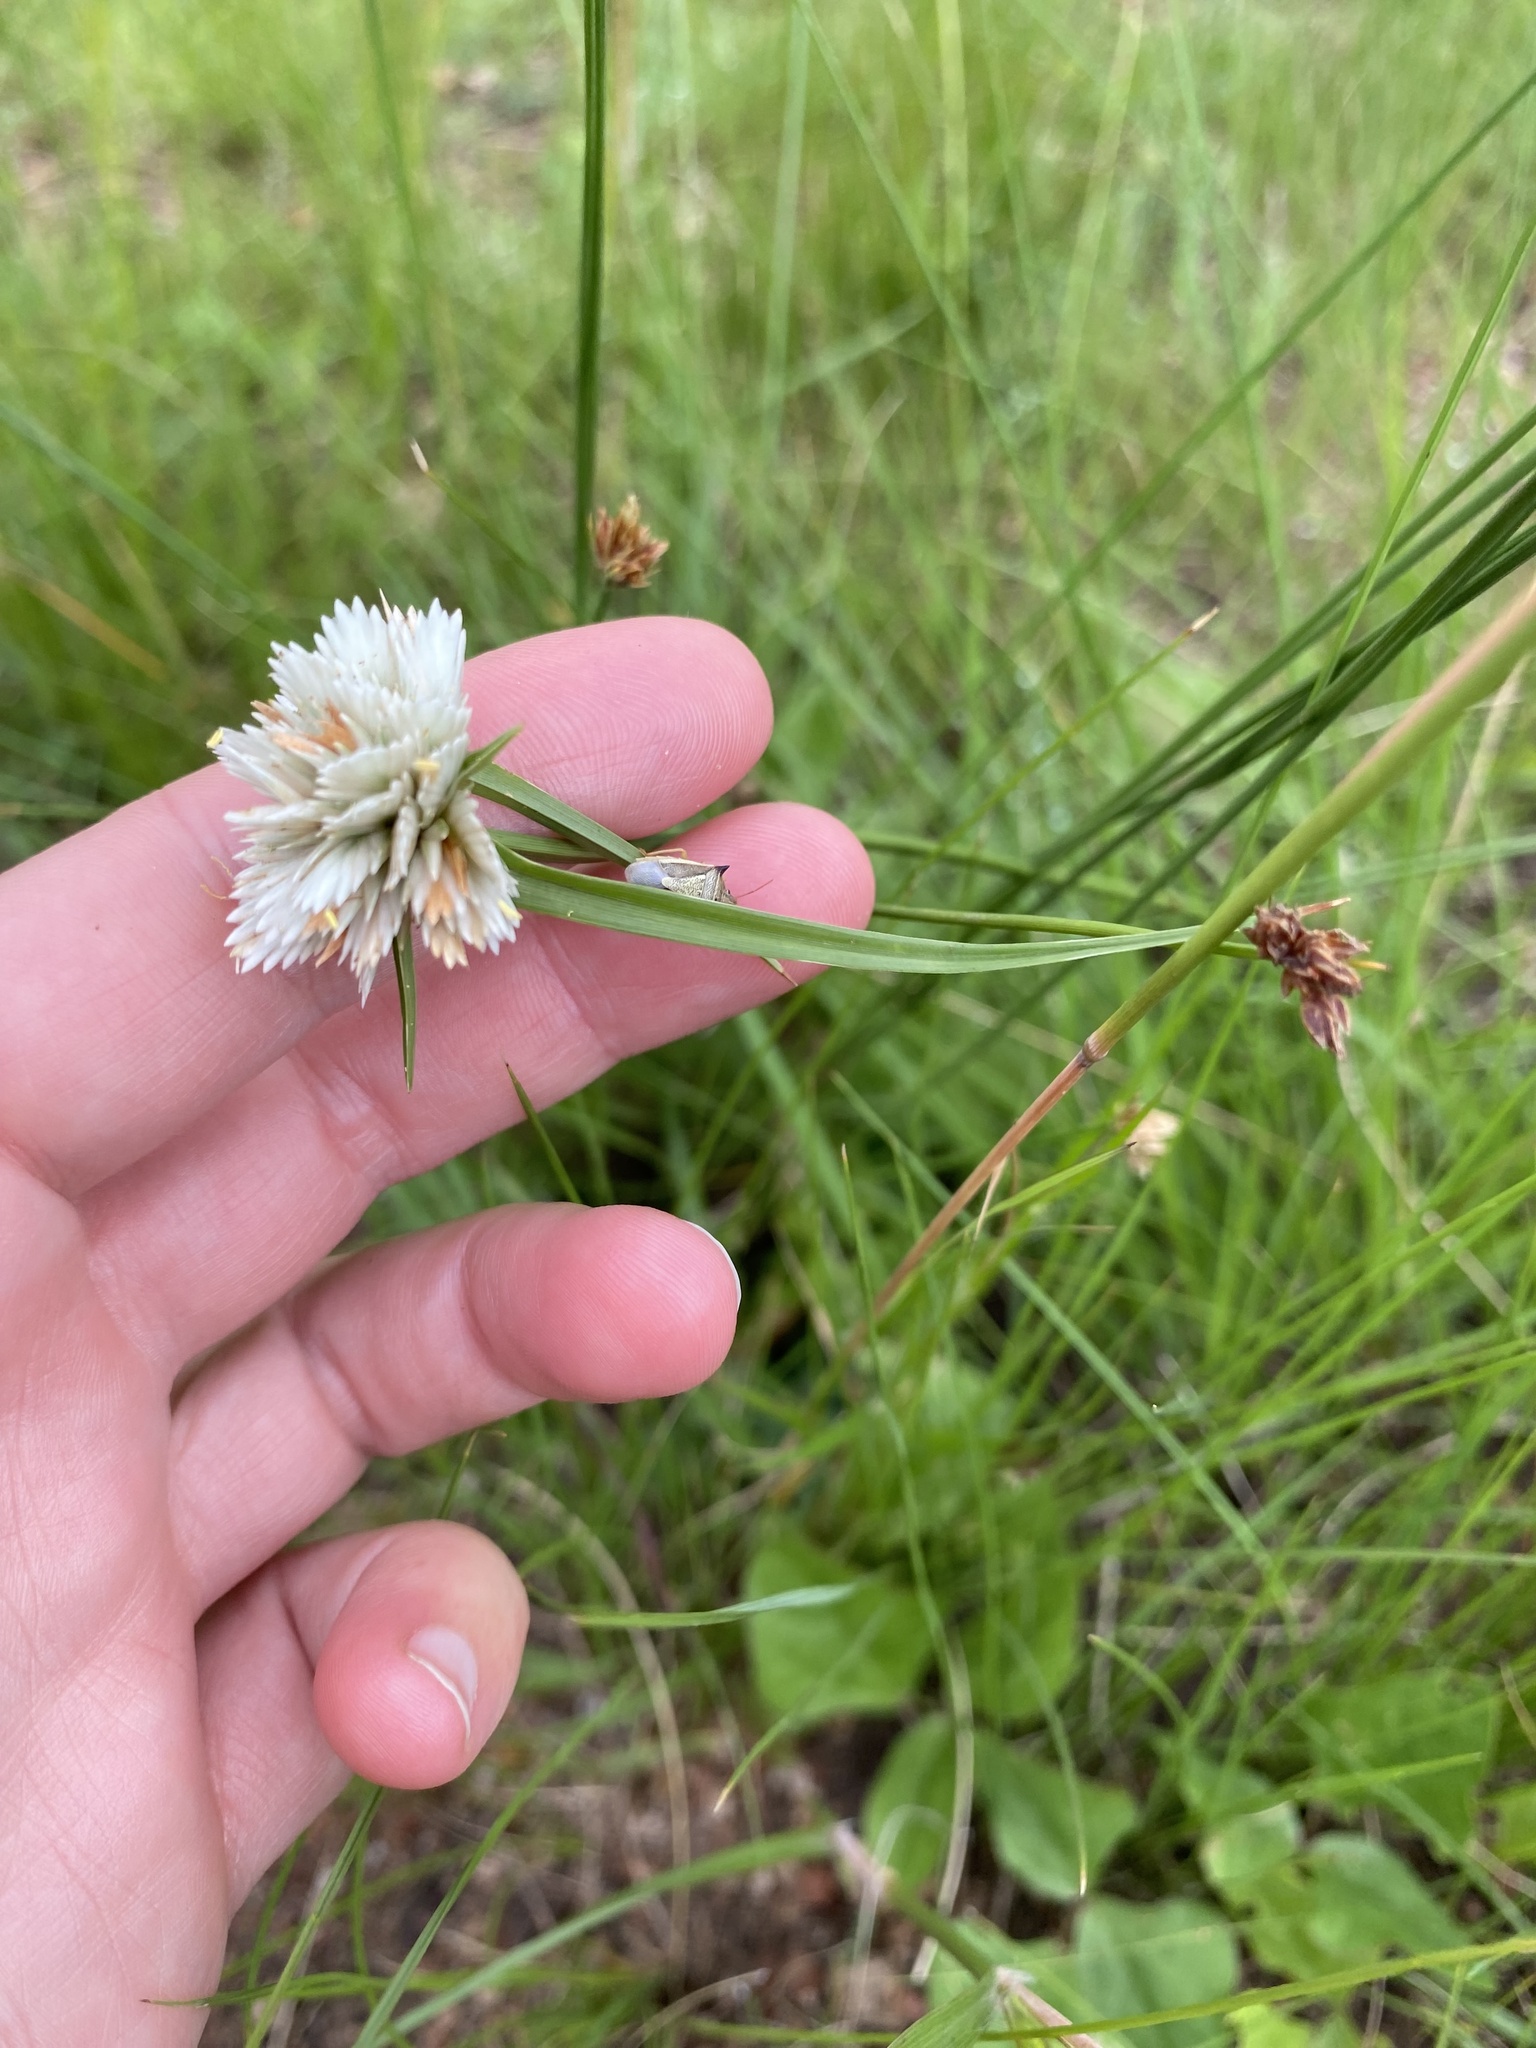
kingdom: Plantae
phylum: Tracheophyta
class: Liliopsida
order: Poales
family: Cyperaceae
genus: Cyperus
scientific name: Cyperus niveus
